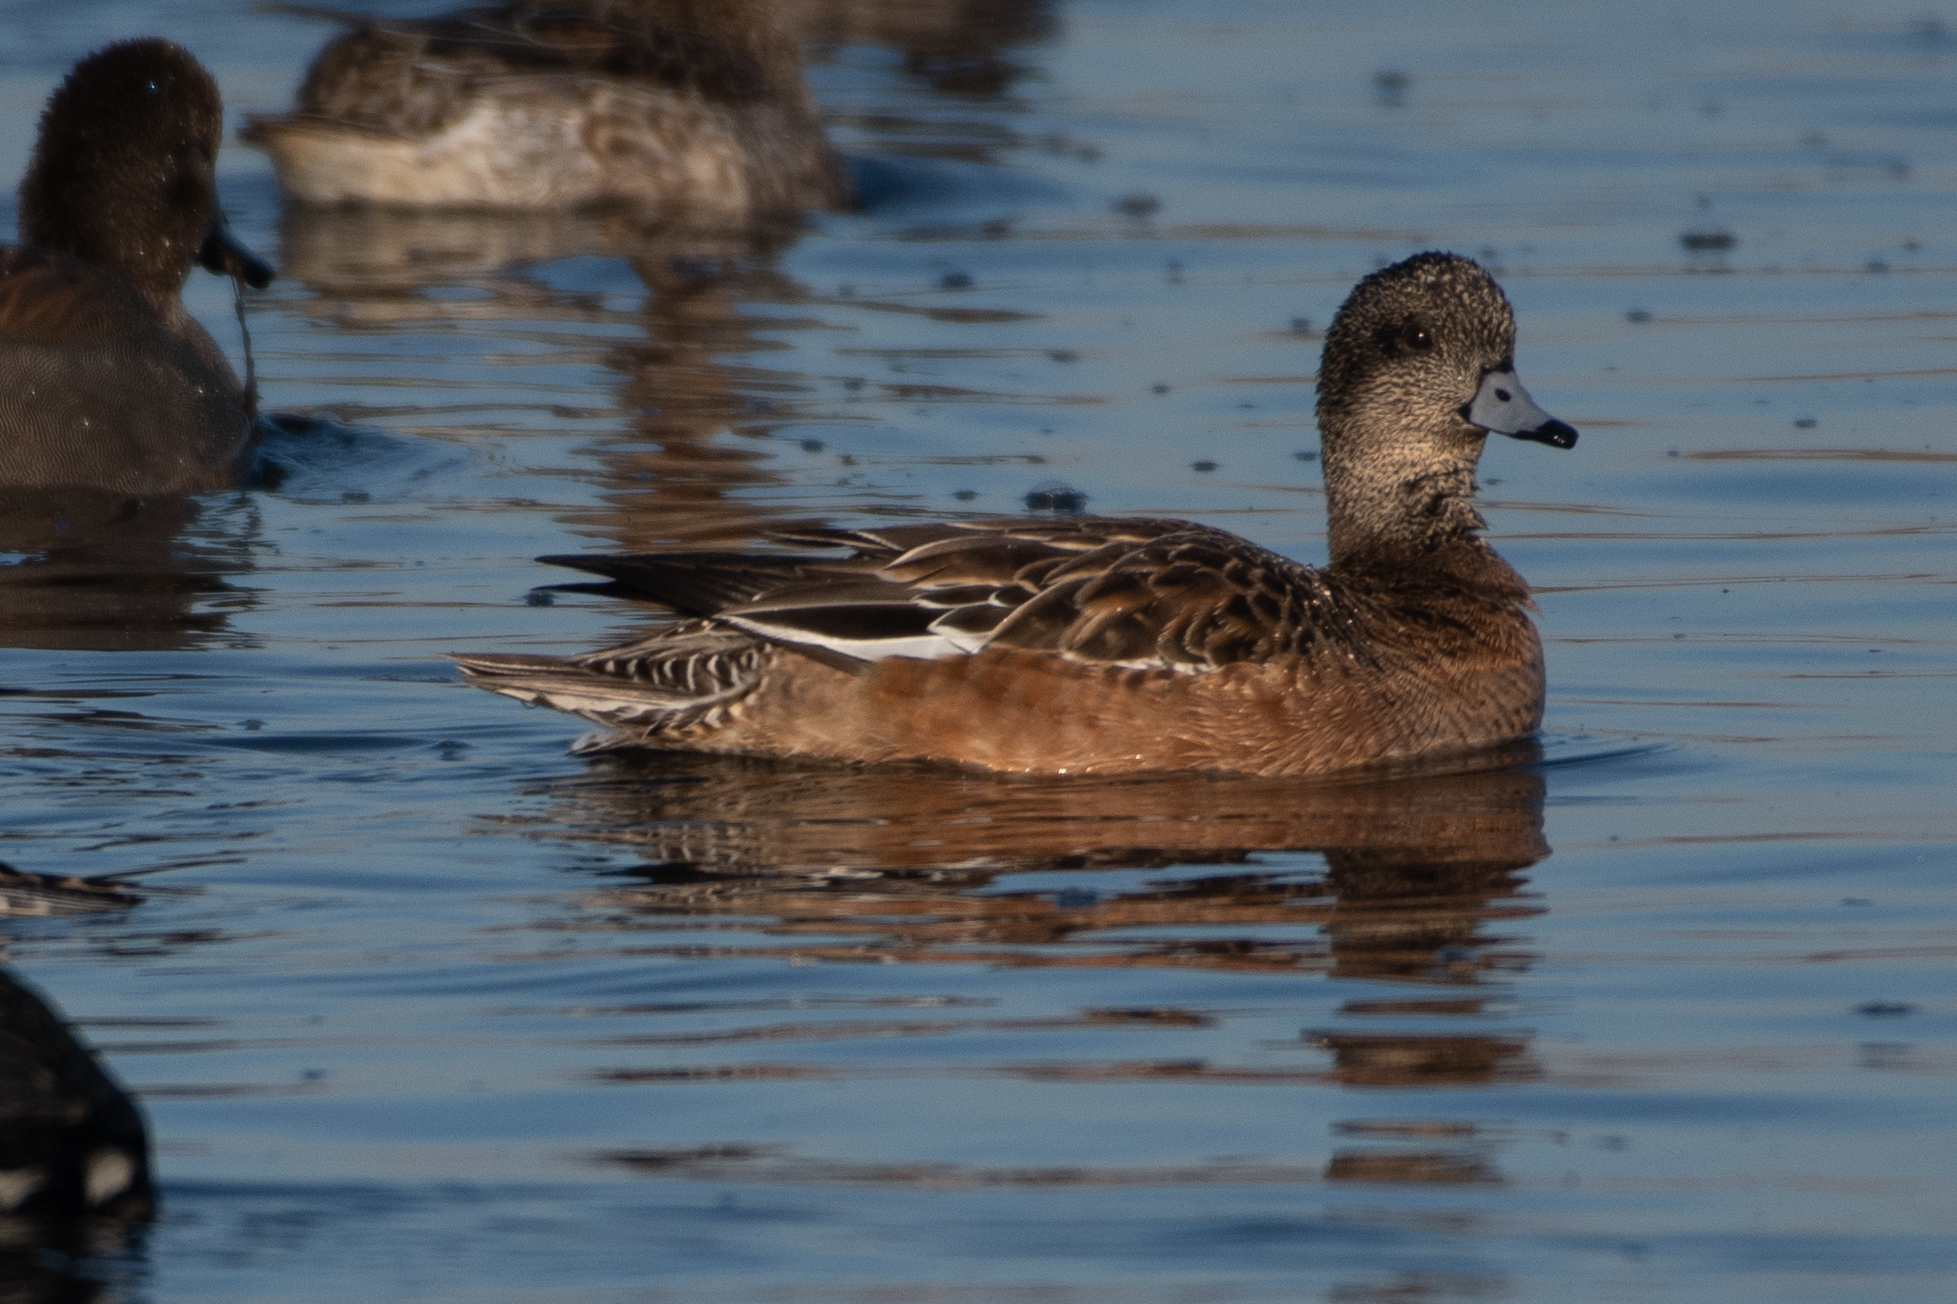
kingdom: Animalia
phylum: Chordata
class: Aves
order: Anseriformes
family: Anatidae
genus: Mareca
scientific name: Mareca americana
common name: American wigeon
